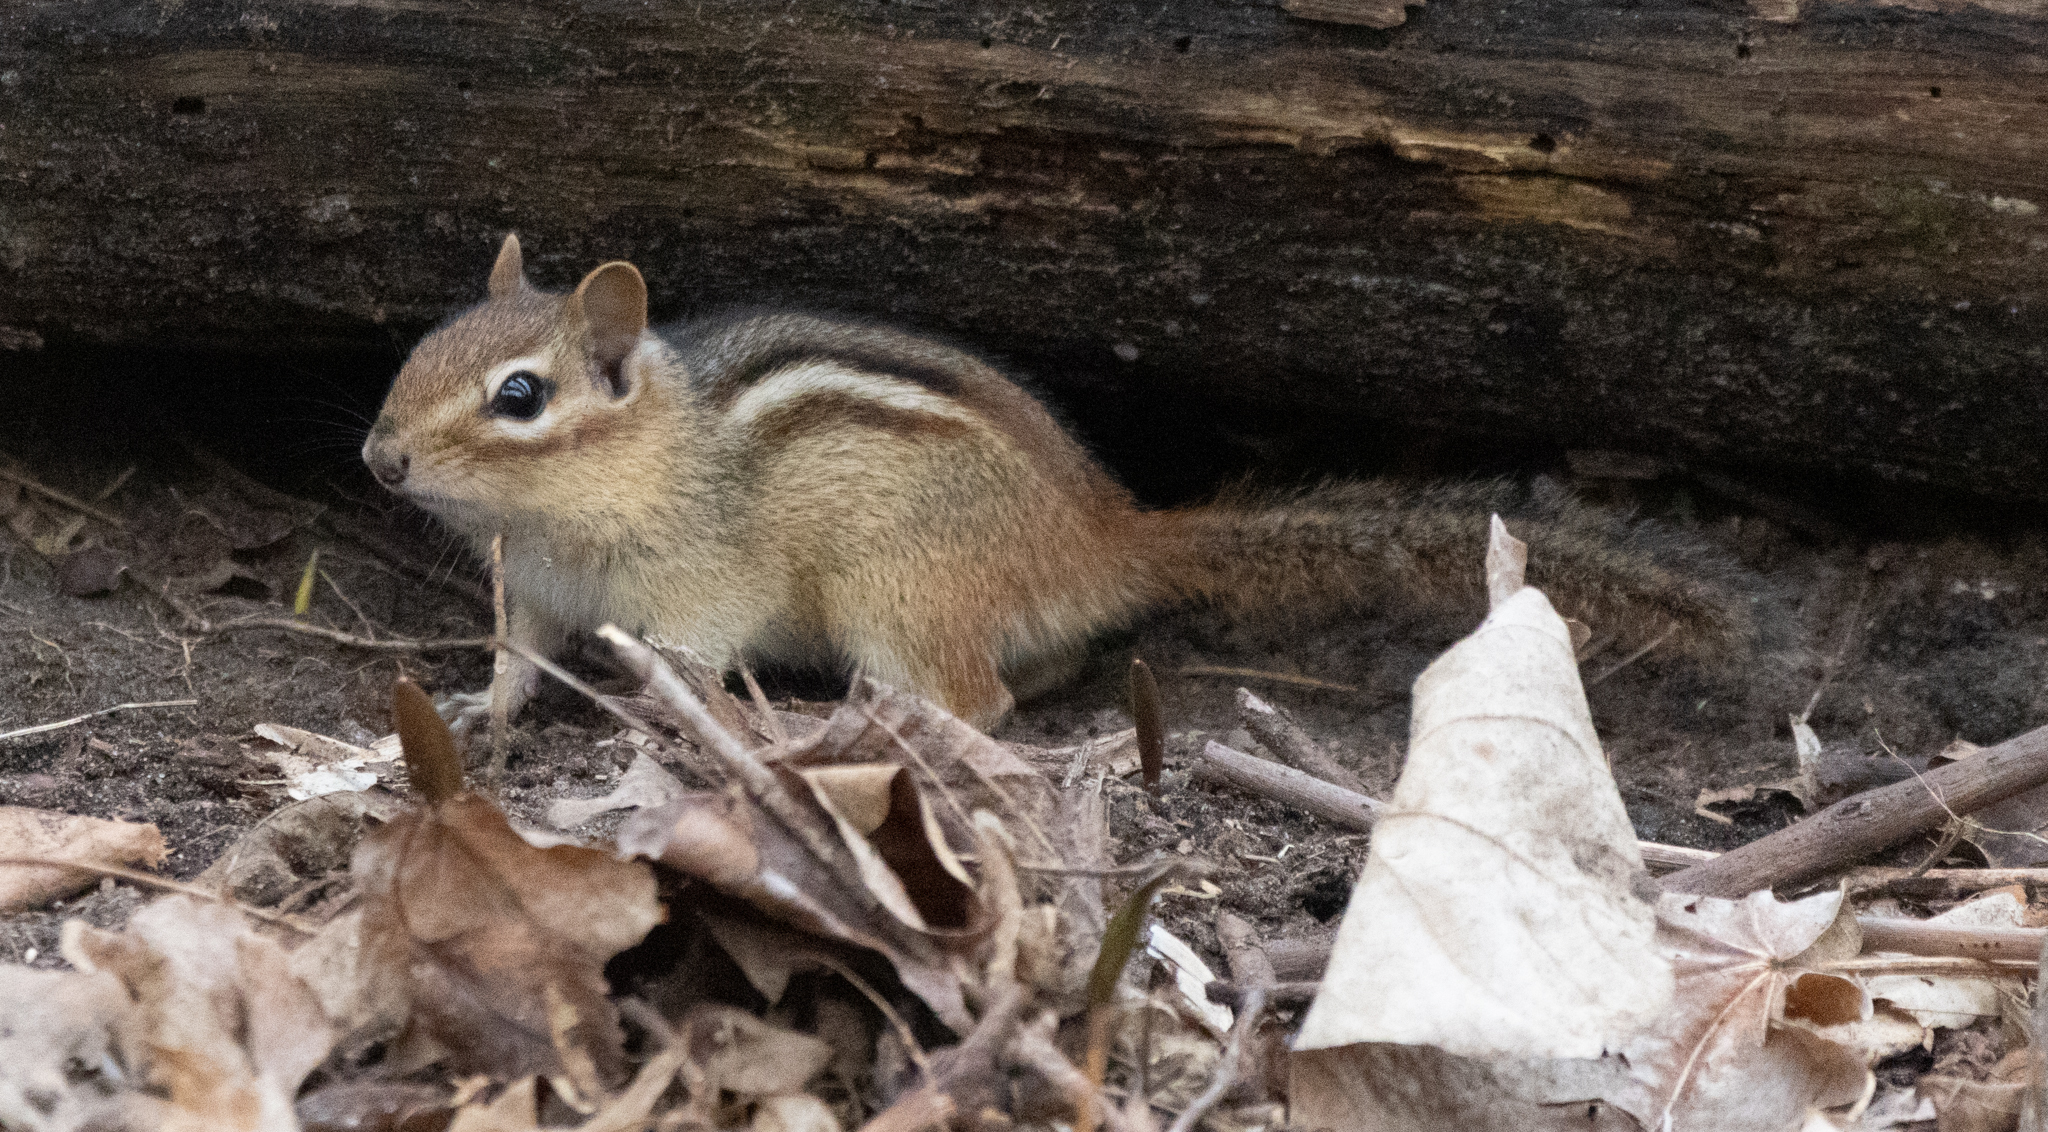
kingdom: Animalia
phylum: Chordata
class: Mammalia
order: Rodentia
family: Sciuridae
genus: Tamias
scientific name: Tamias striatus
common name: Eastern chipmunk
